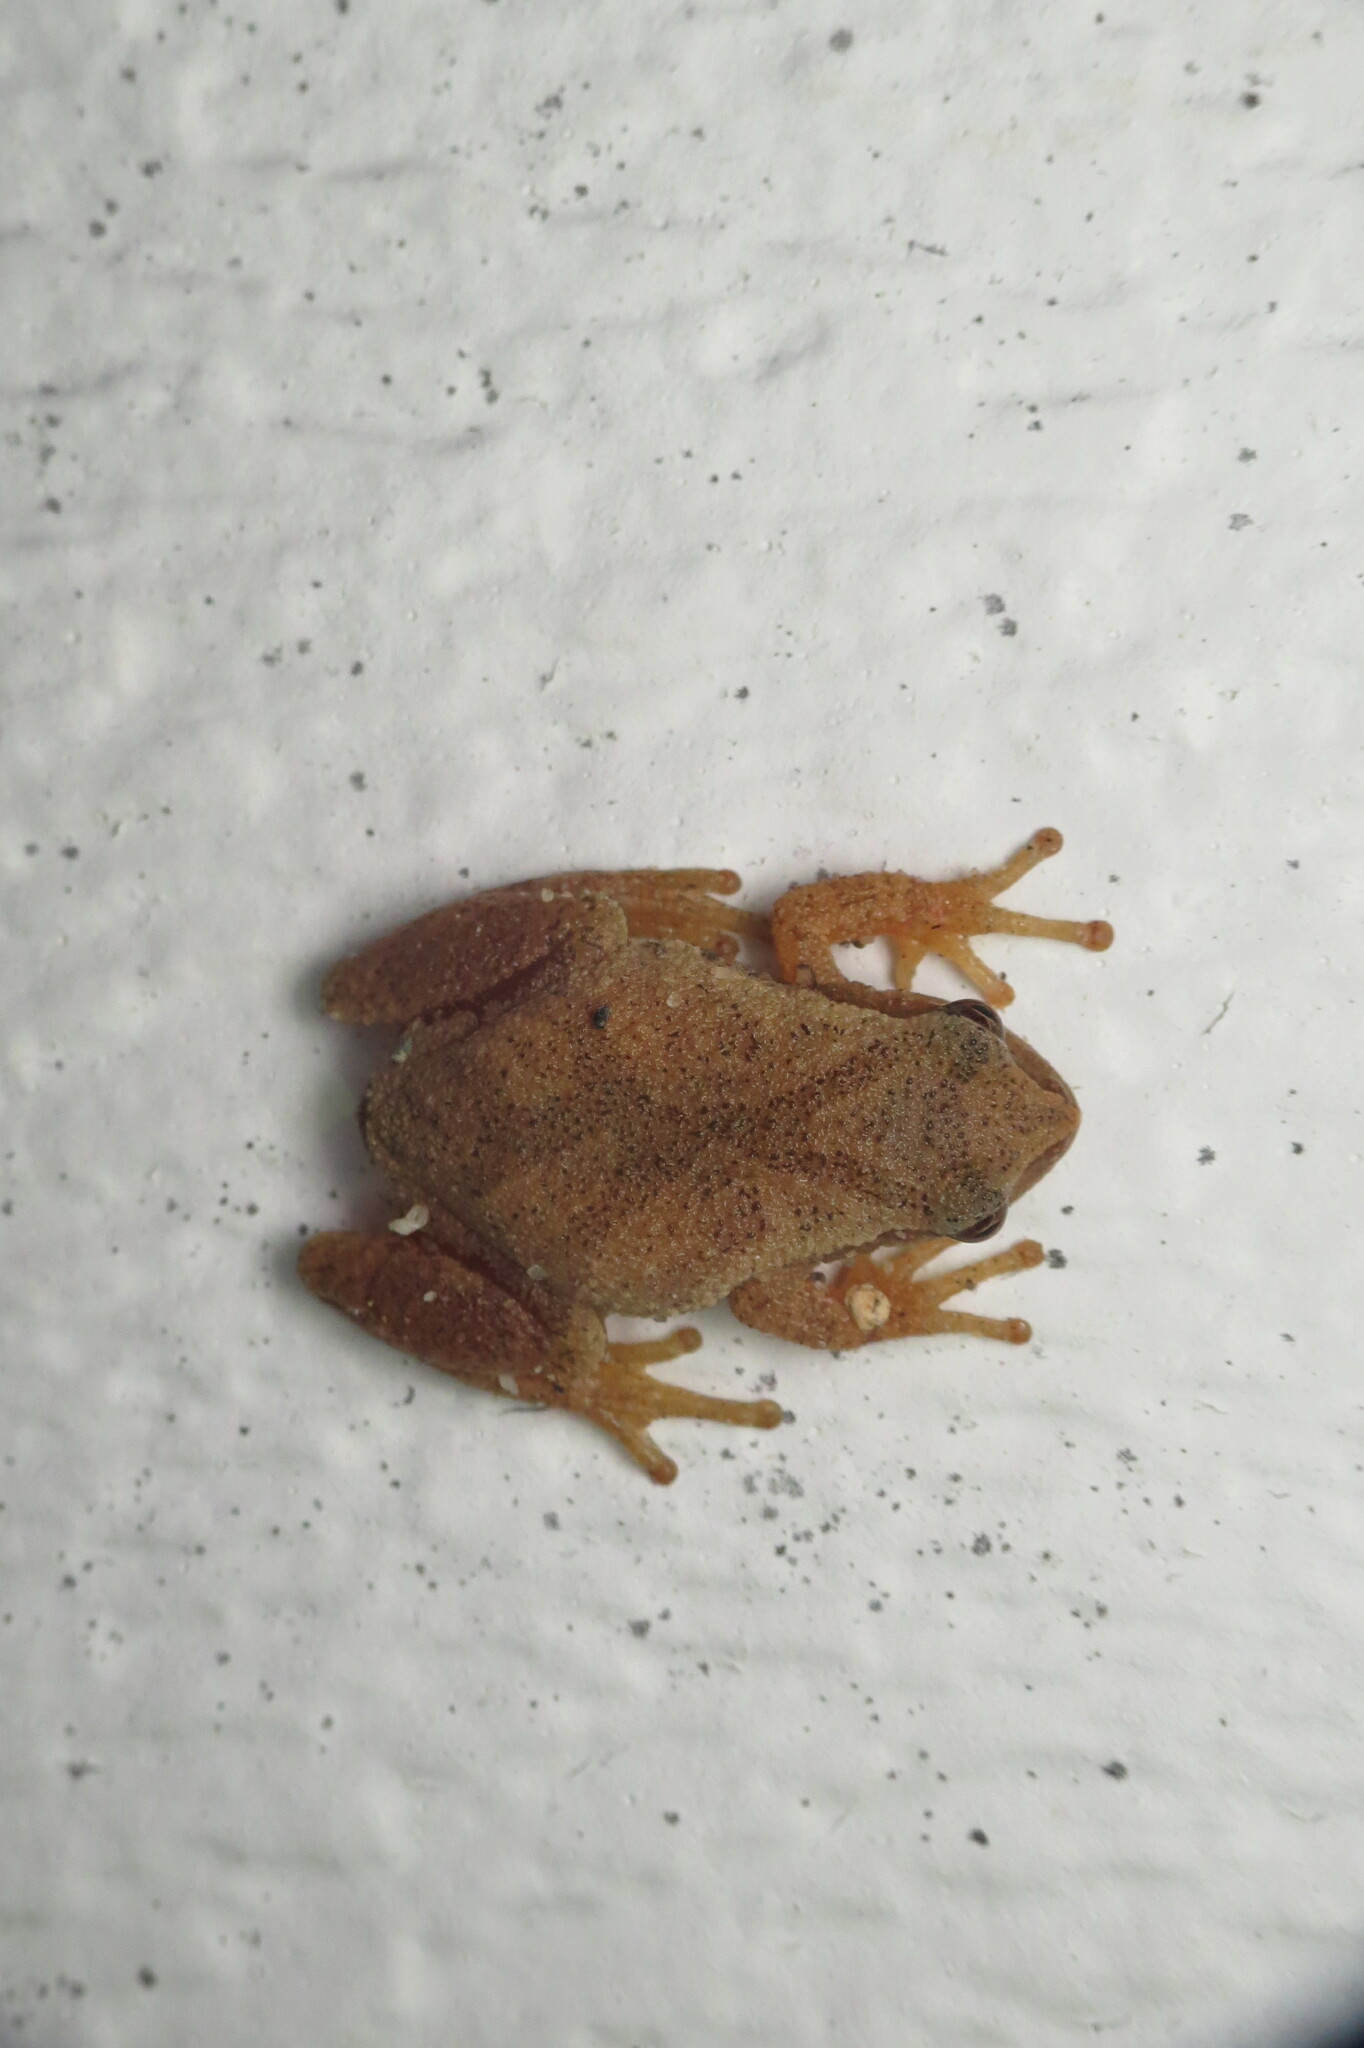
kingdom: Animalia
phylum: Chordata
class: Amphibia
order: Anura
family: Hylidae
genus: Pseudacris
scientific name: Pseudacris crucifer
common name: Spring peeper
